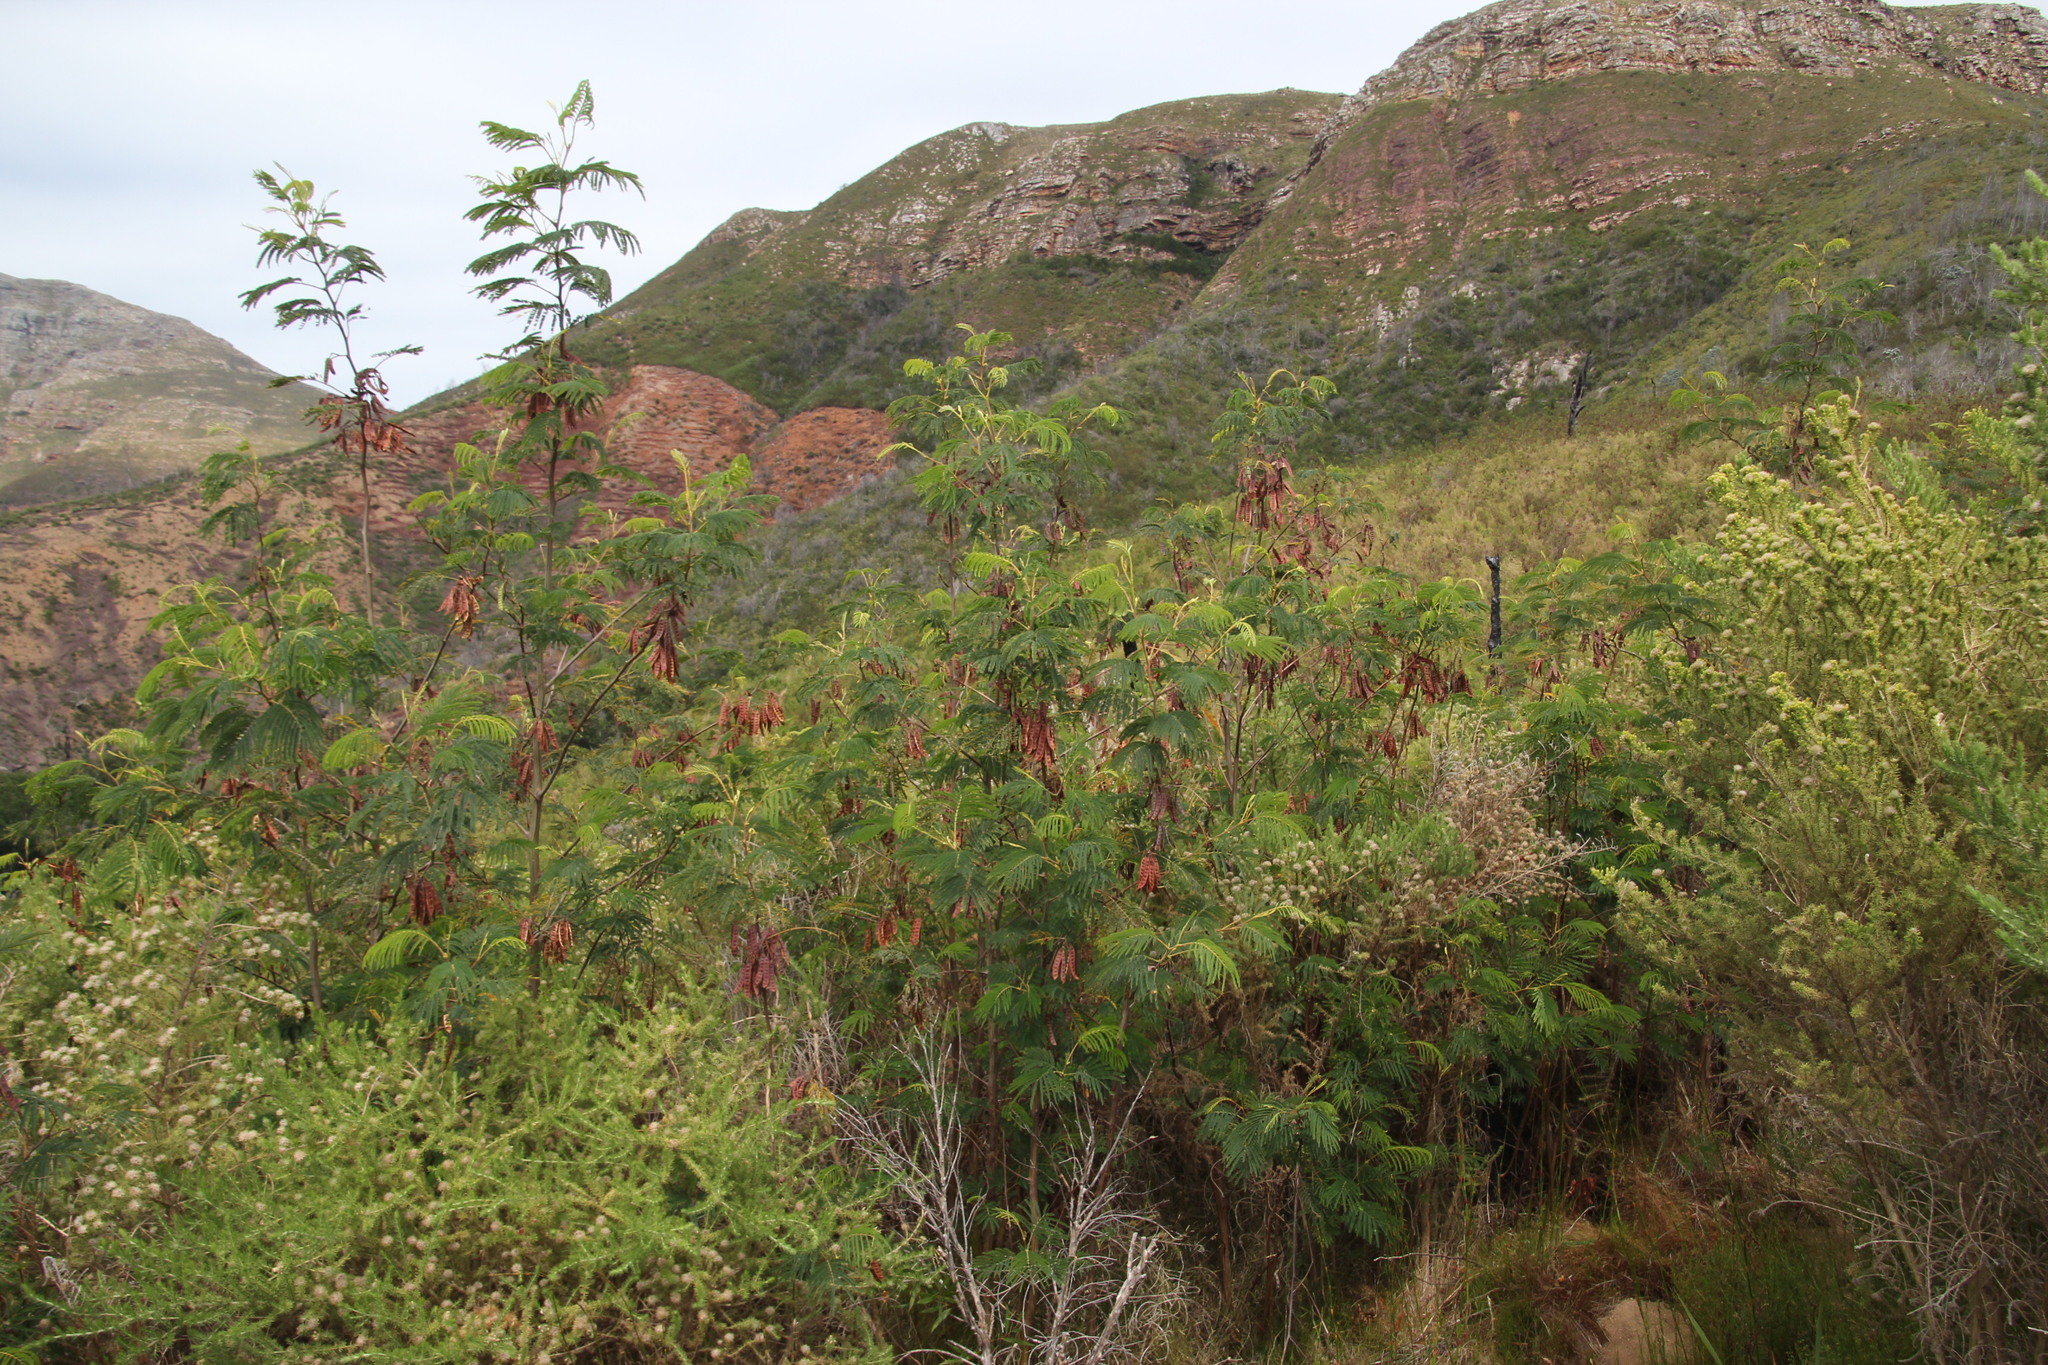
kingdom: Plantae
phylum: Tracheophyta
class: Magnoliopsida
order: Fabales
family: Fabaceae
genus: Paraserianthes
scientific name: Paraserianthes lophantha
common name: Plume albizia
